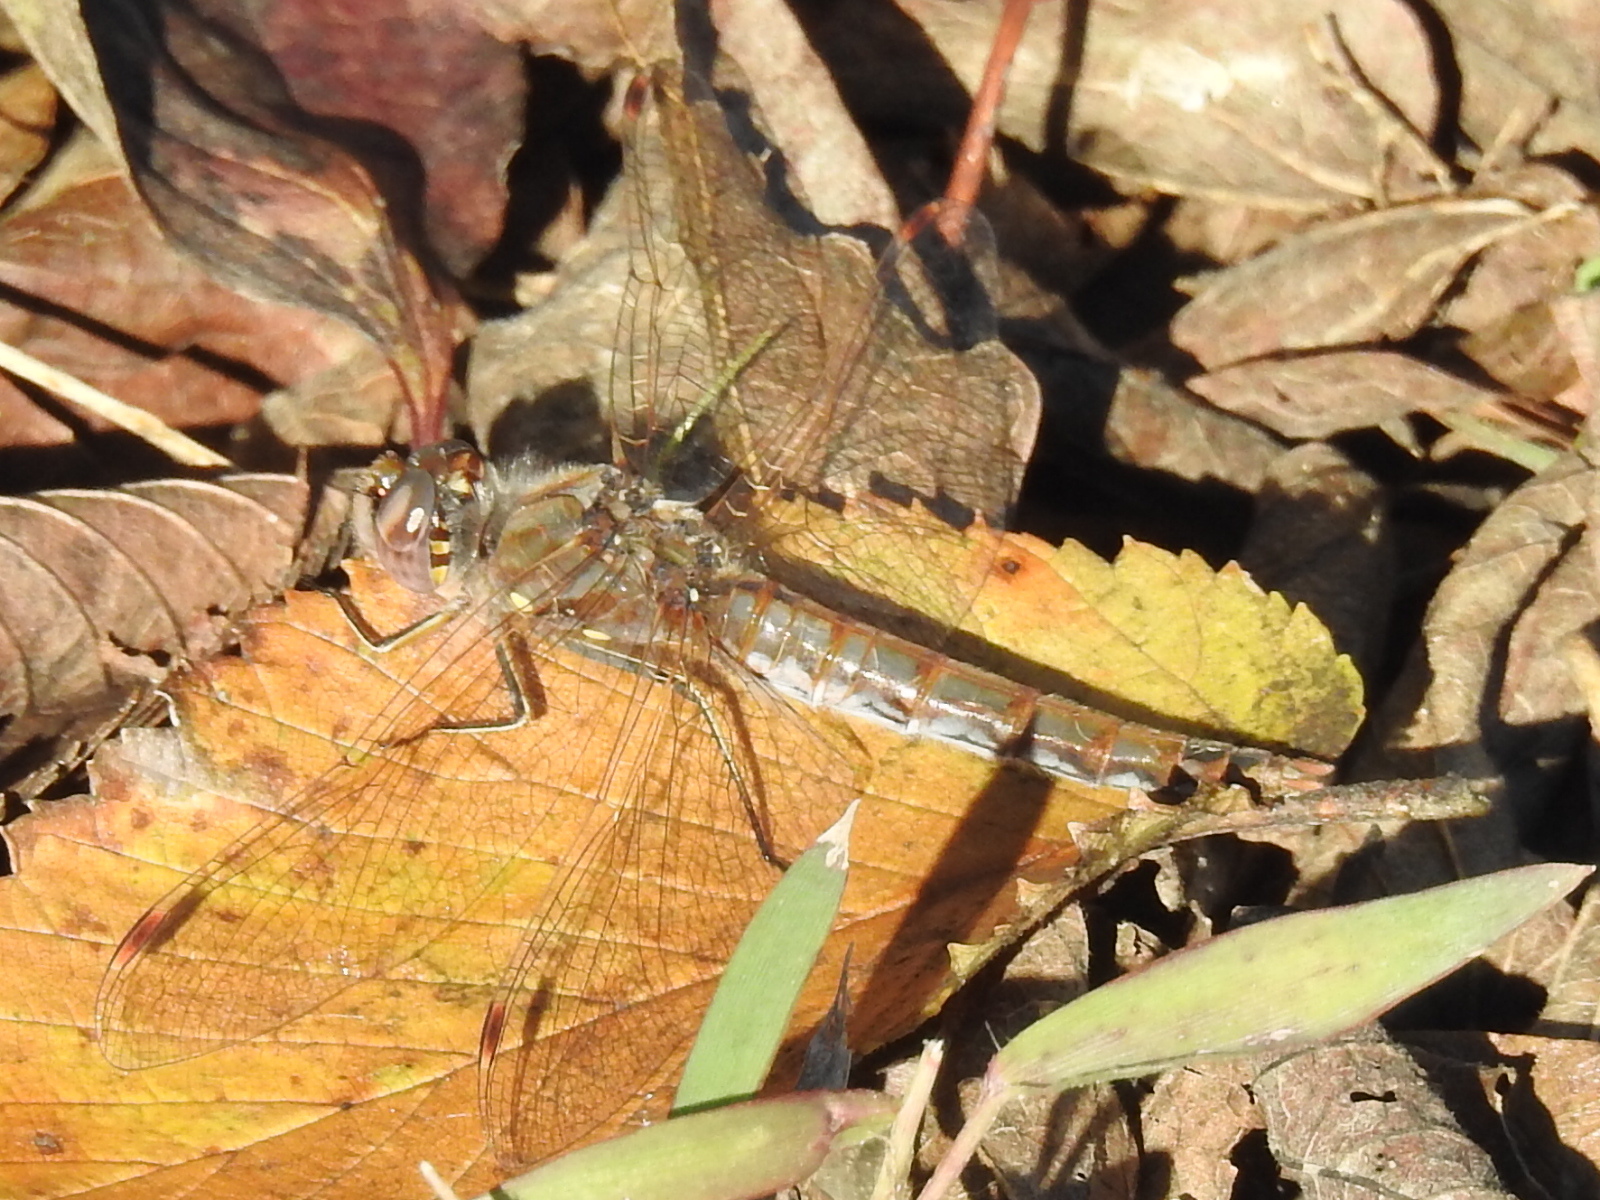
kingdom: Animalia
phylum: Arthropoda
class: Insecta
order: Odonata
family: Libellulidae
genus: Sympetrum
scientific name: Sympetrum corruptum
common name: Variegated meadowhawk
